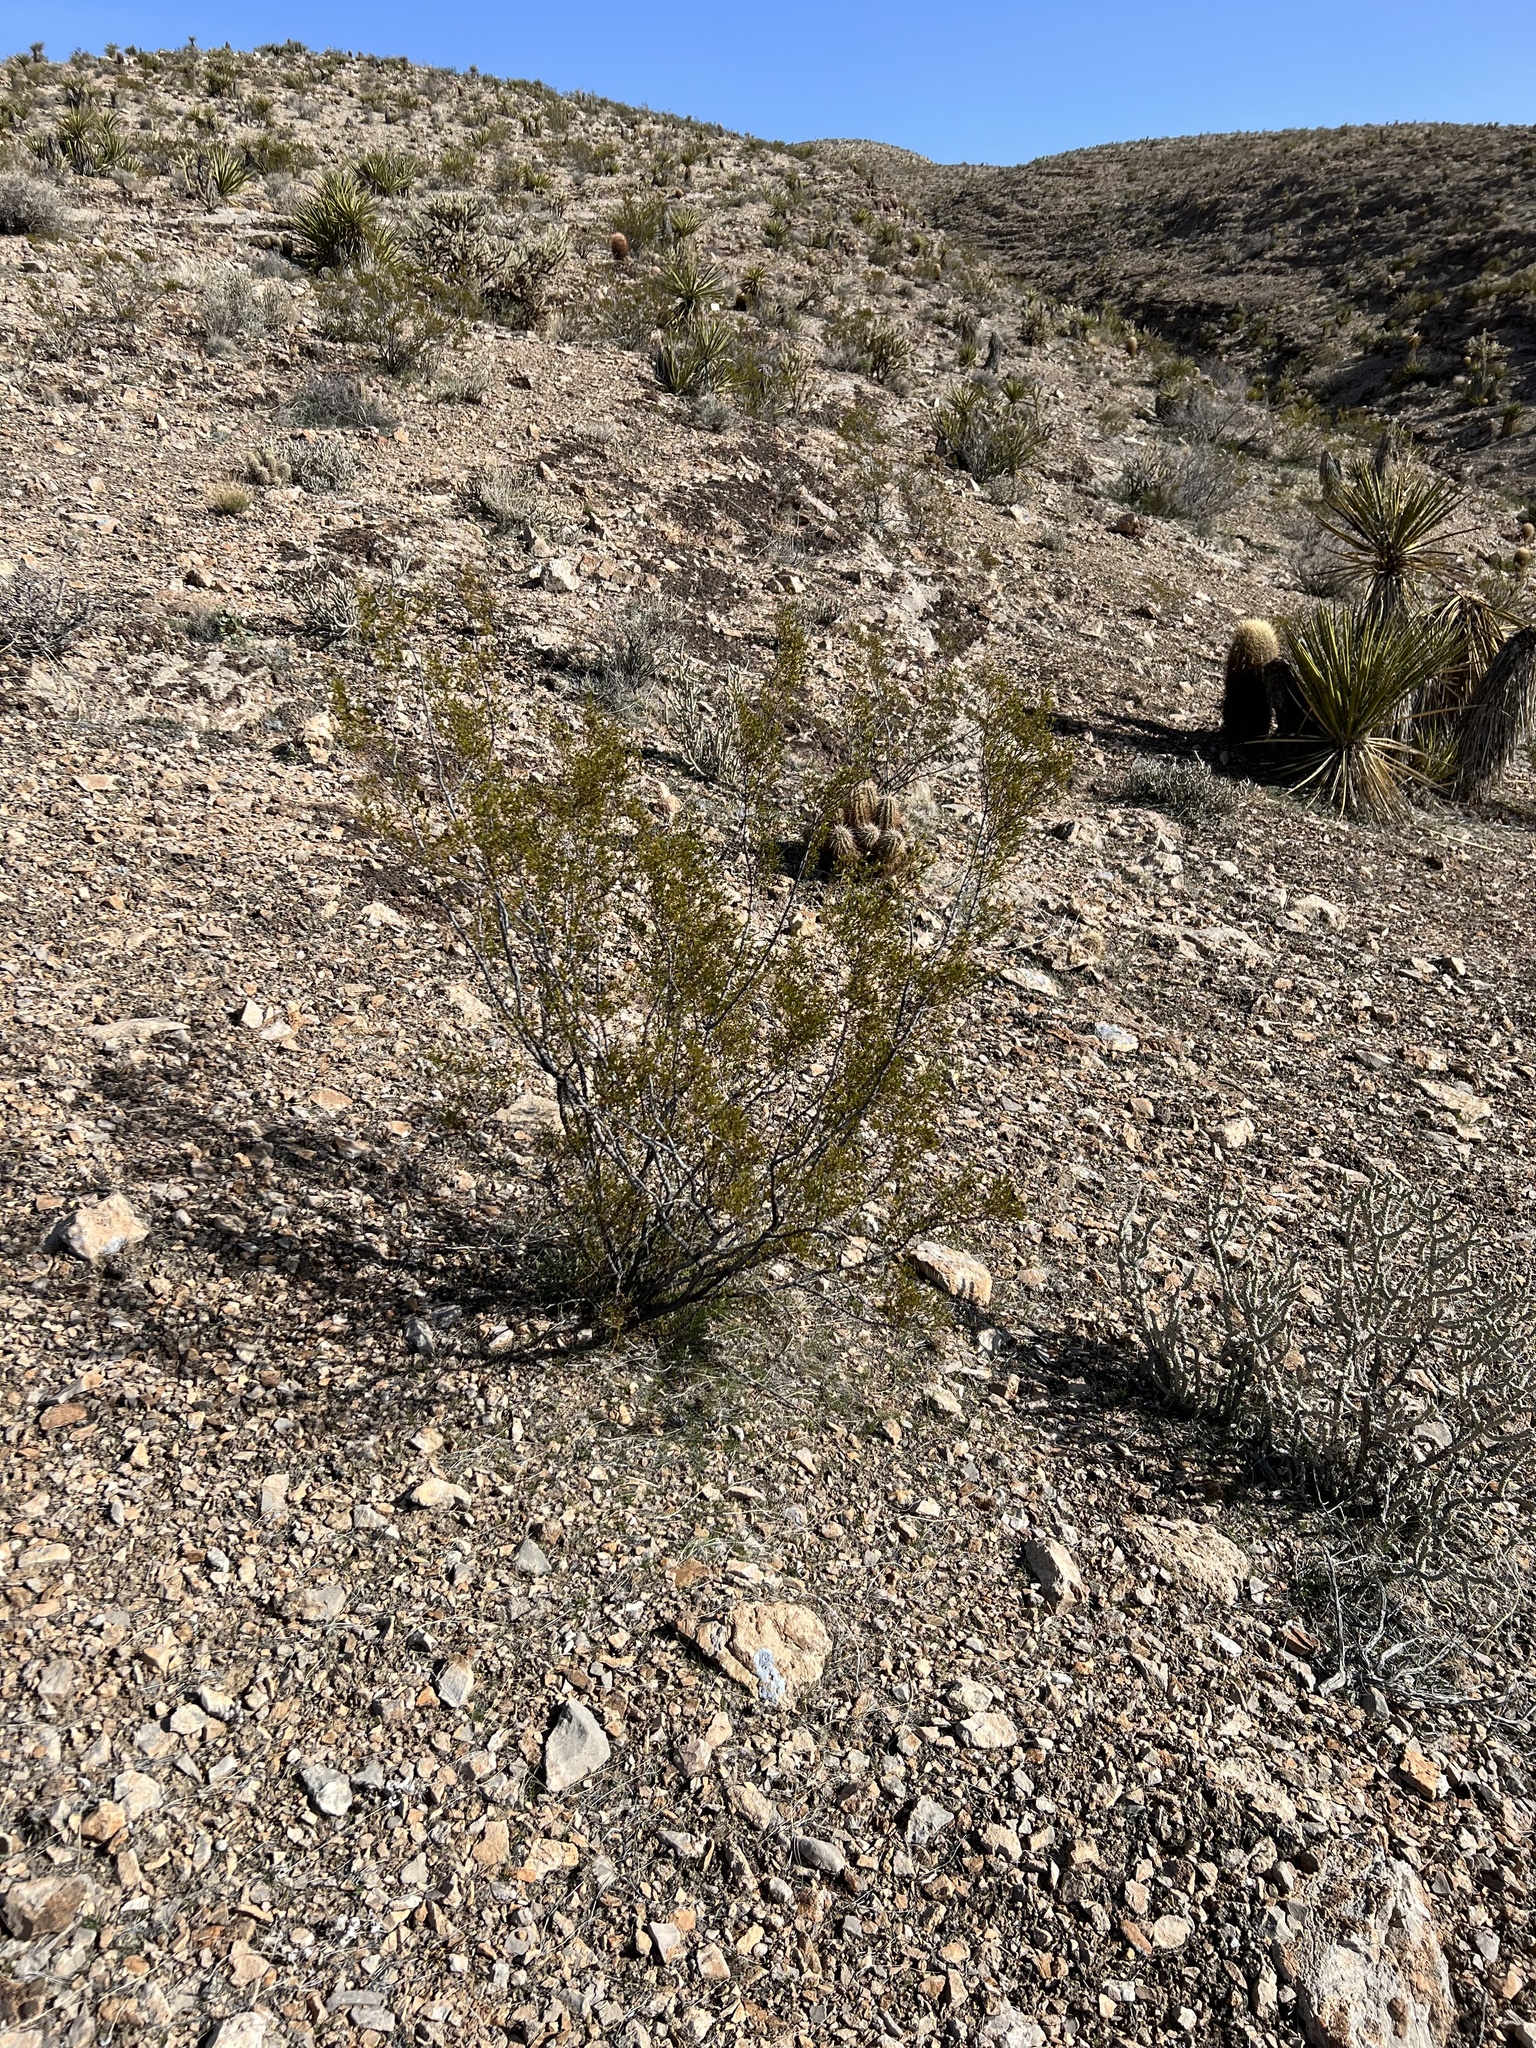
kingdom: Plantae
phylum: Tracheophyta
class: Magnoliopsida
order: Zygophyllales
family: Zygophyllaceae
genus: Larrea
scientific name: Larrea tridentata
